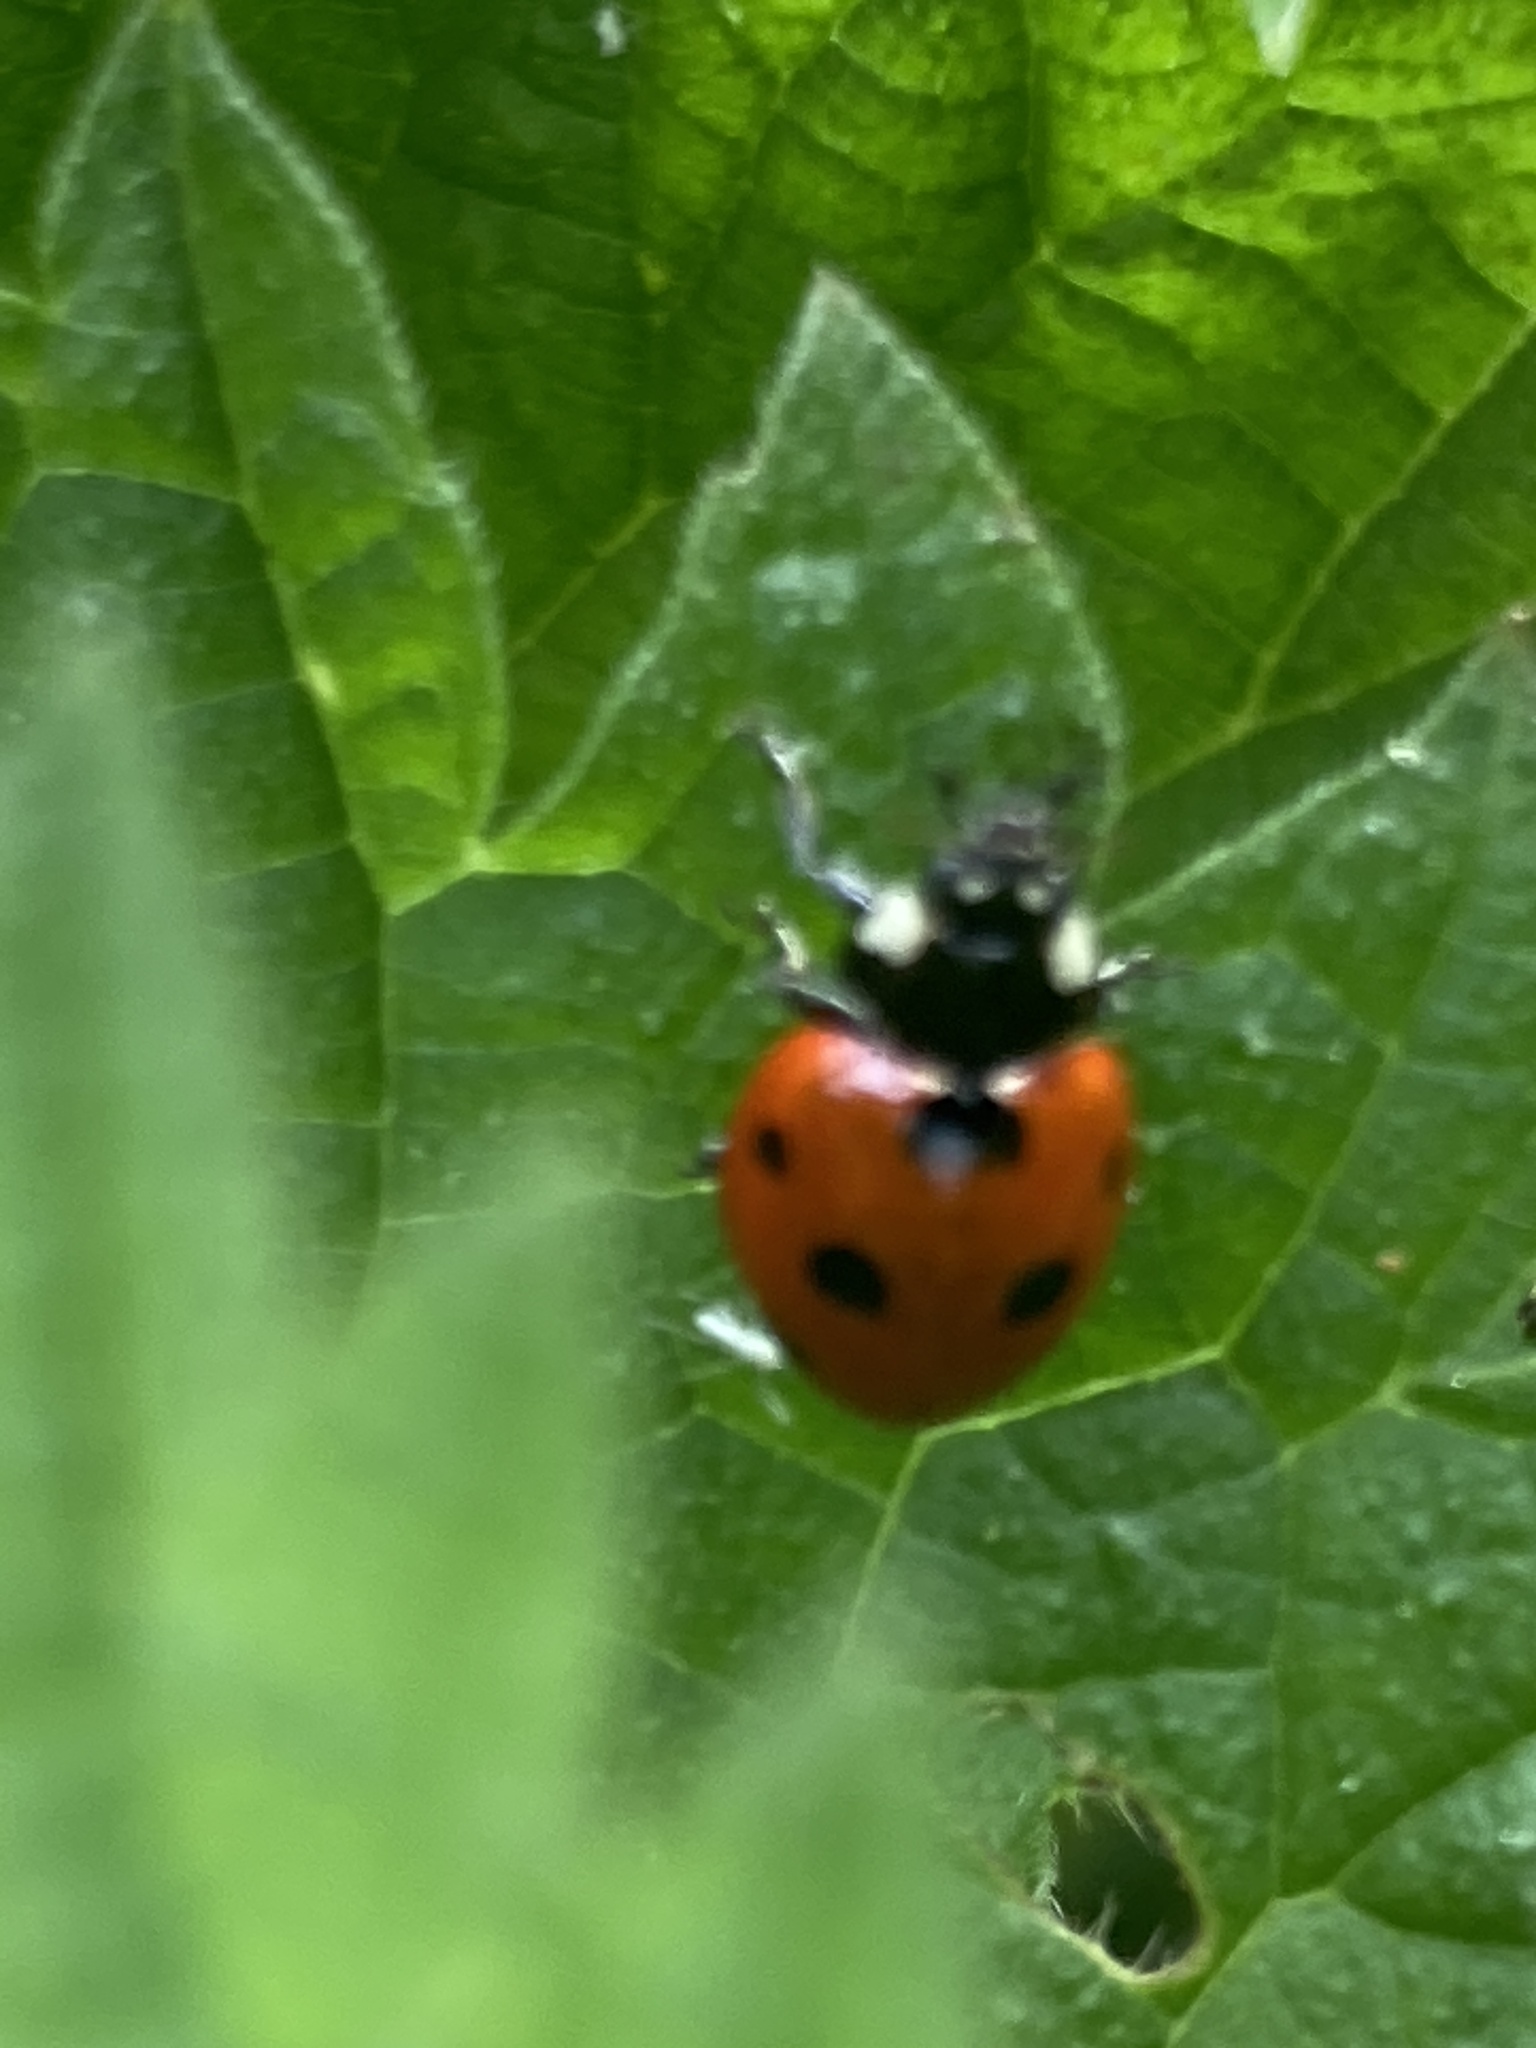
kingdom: Animalia
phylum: Arthropoda
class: Insecta
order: Coleoptera
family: Coccinellidae
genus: Coccinella
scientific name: Coccinella septempunctata
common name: Sevenspotted lady beetle
